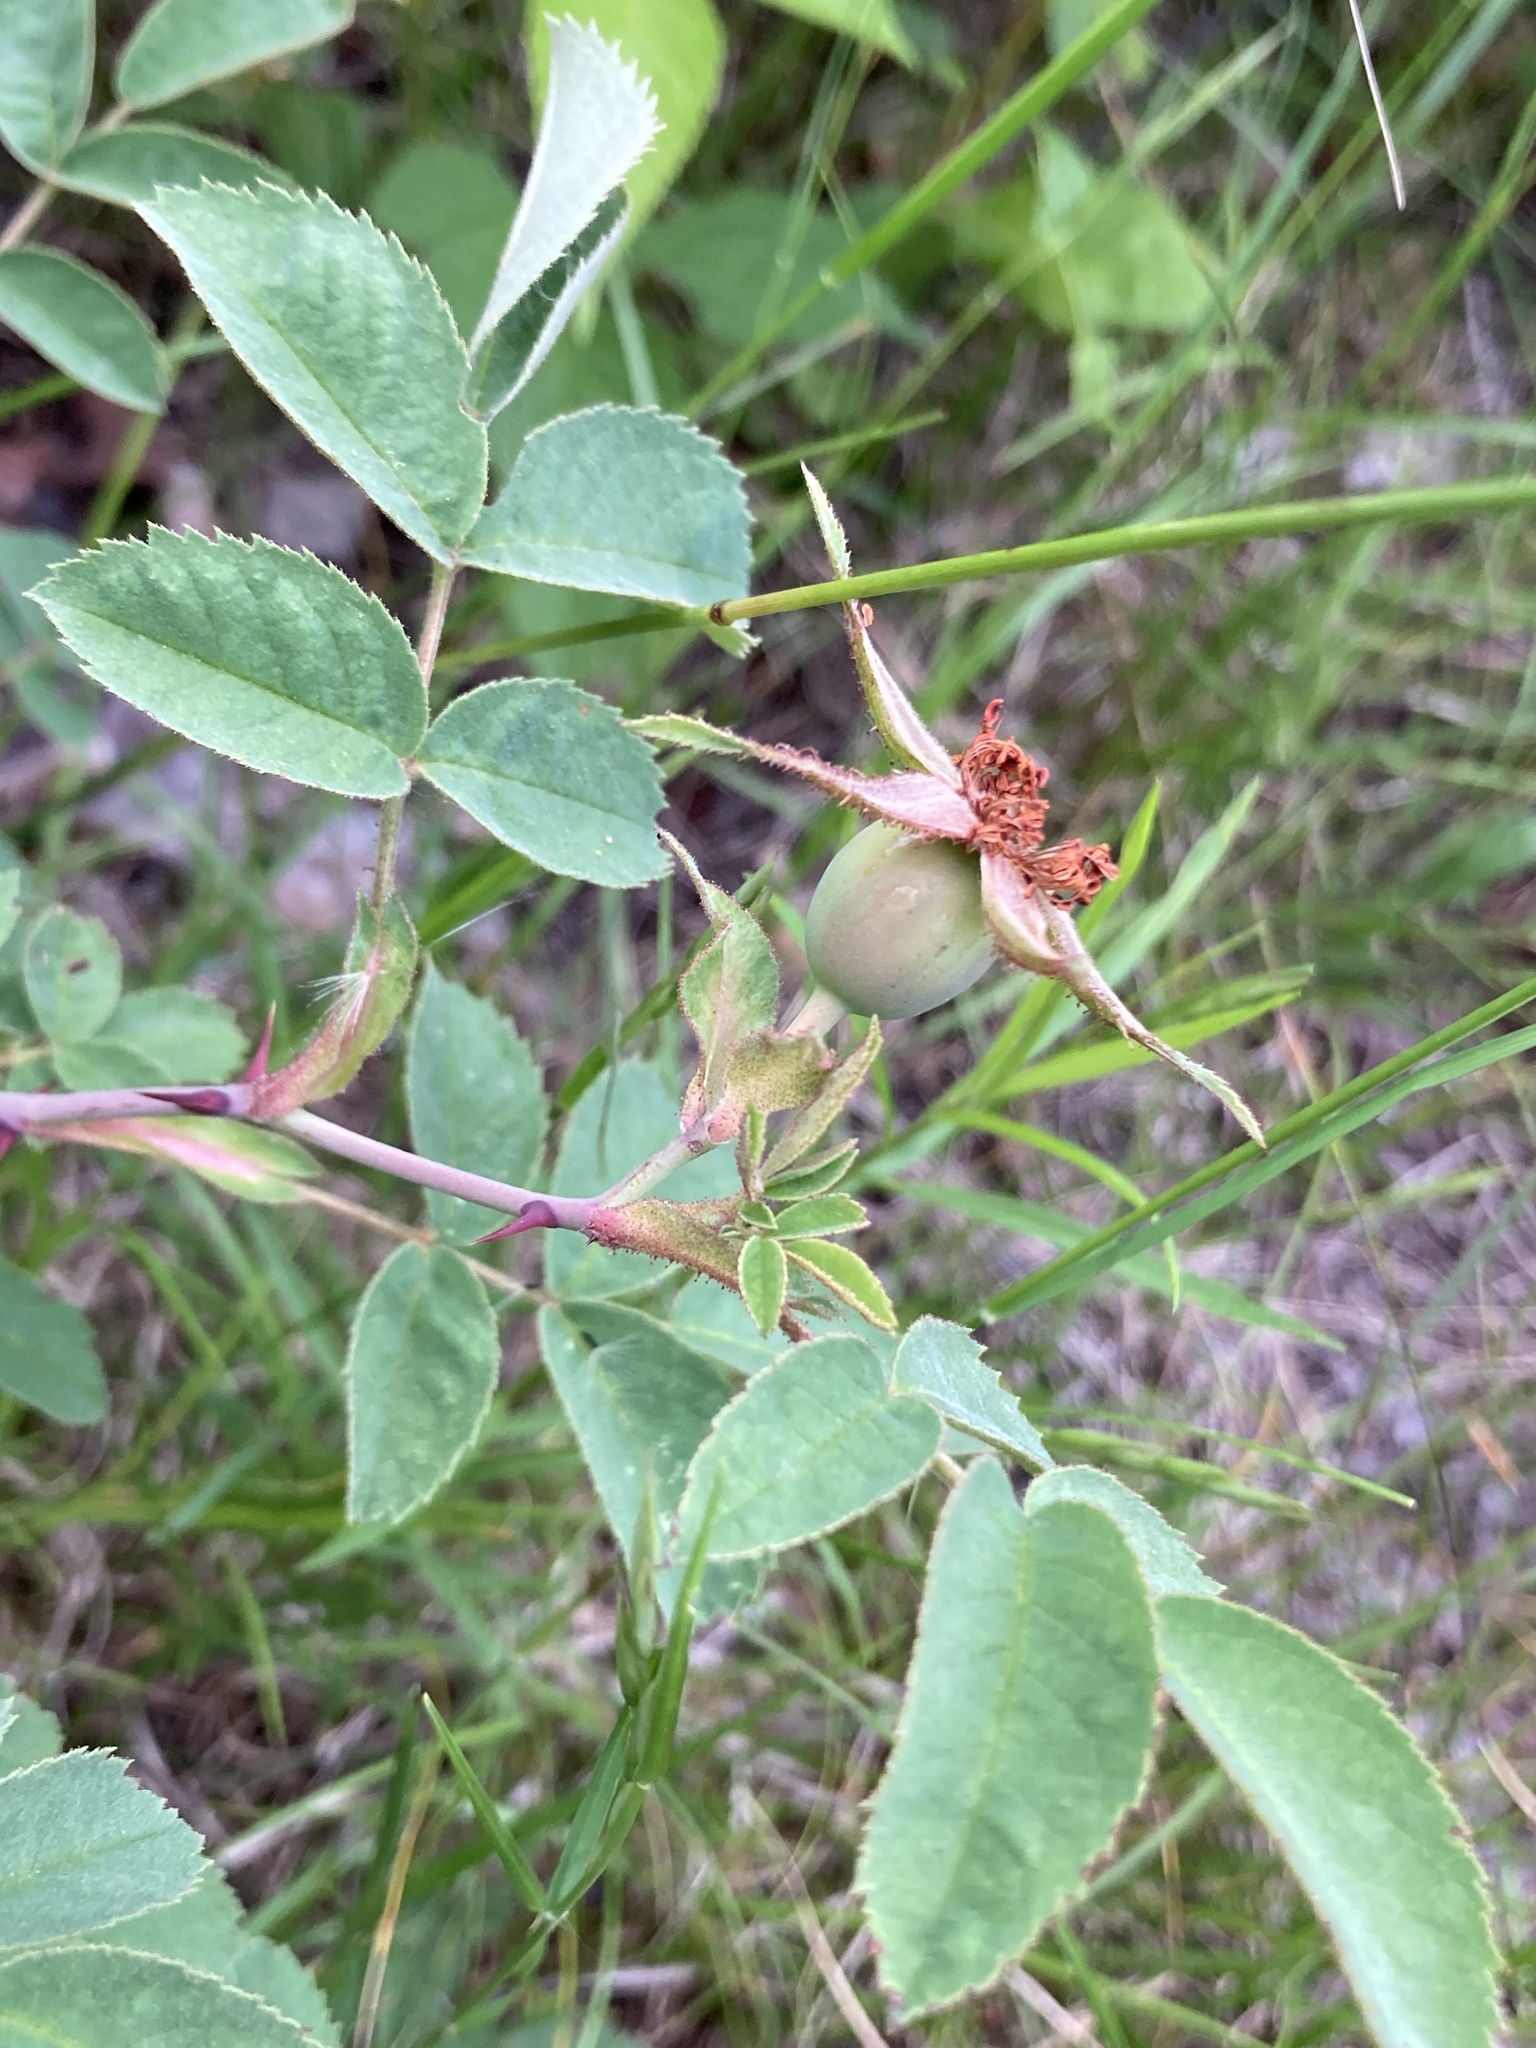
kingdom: Plantae
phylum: Tracheophyta
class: Magnoliopsida
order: Rosales
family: Rosaceae
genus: Rosa
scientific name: Rosa sherardii
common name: Sherard's downy rose
